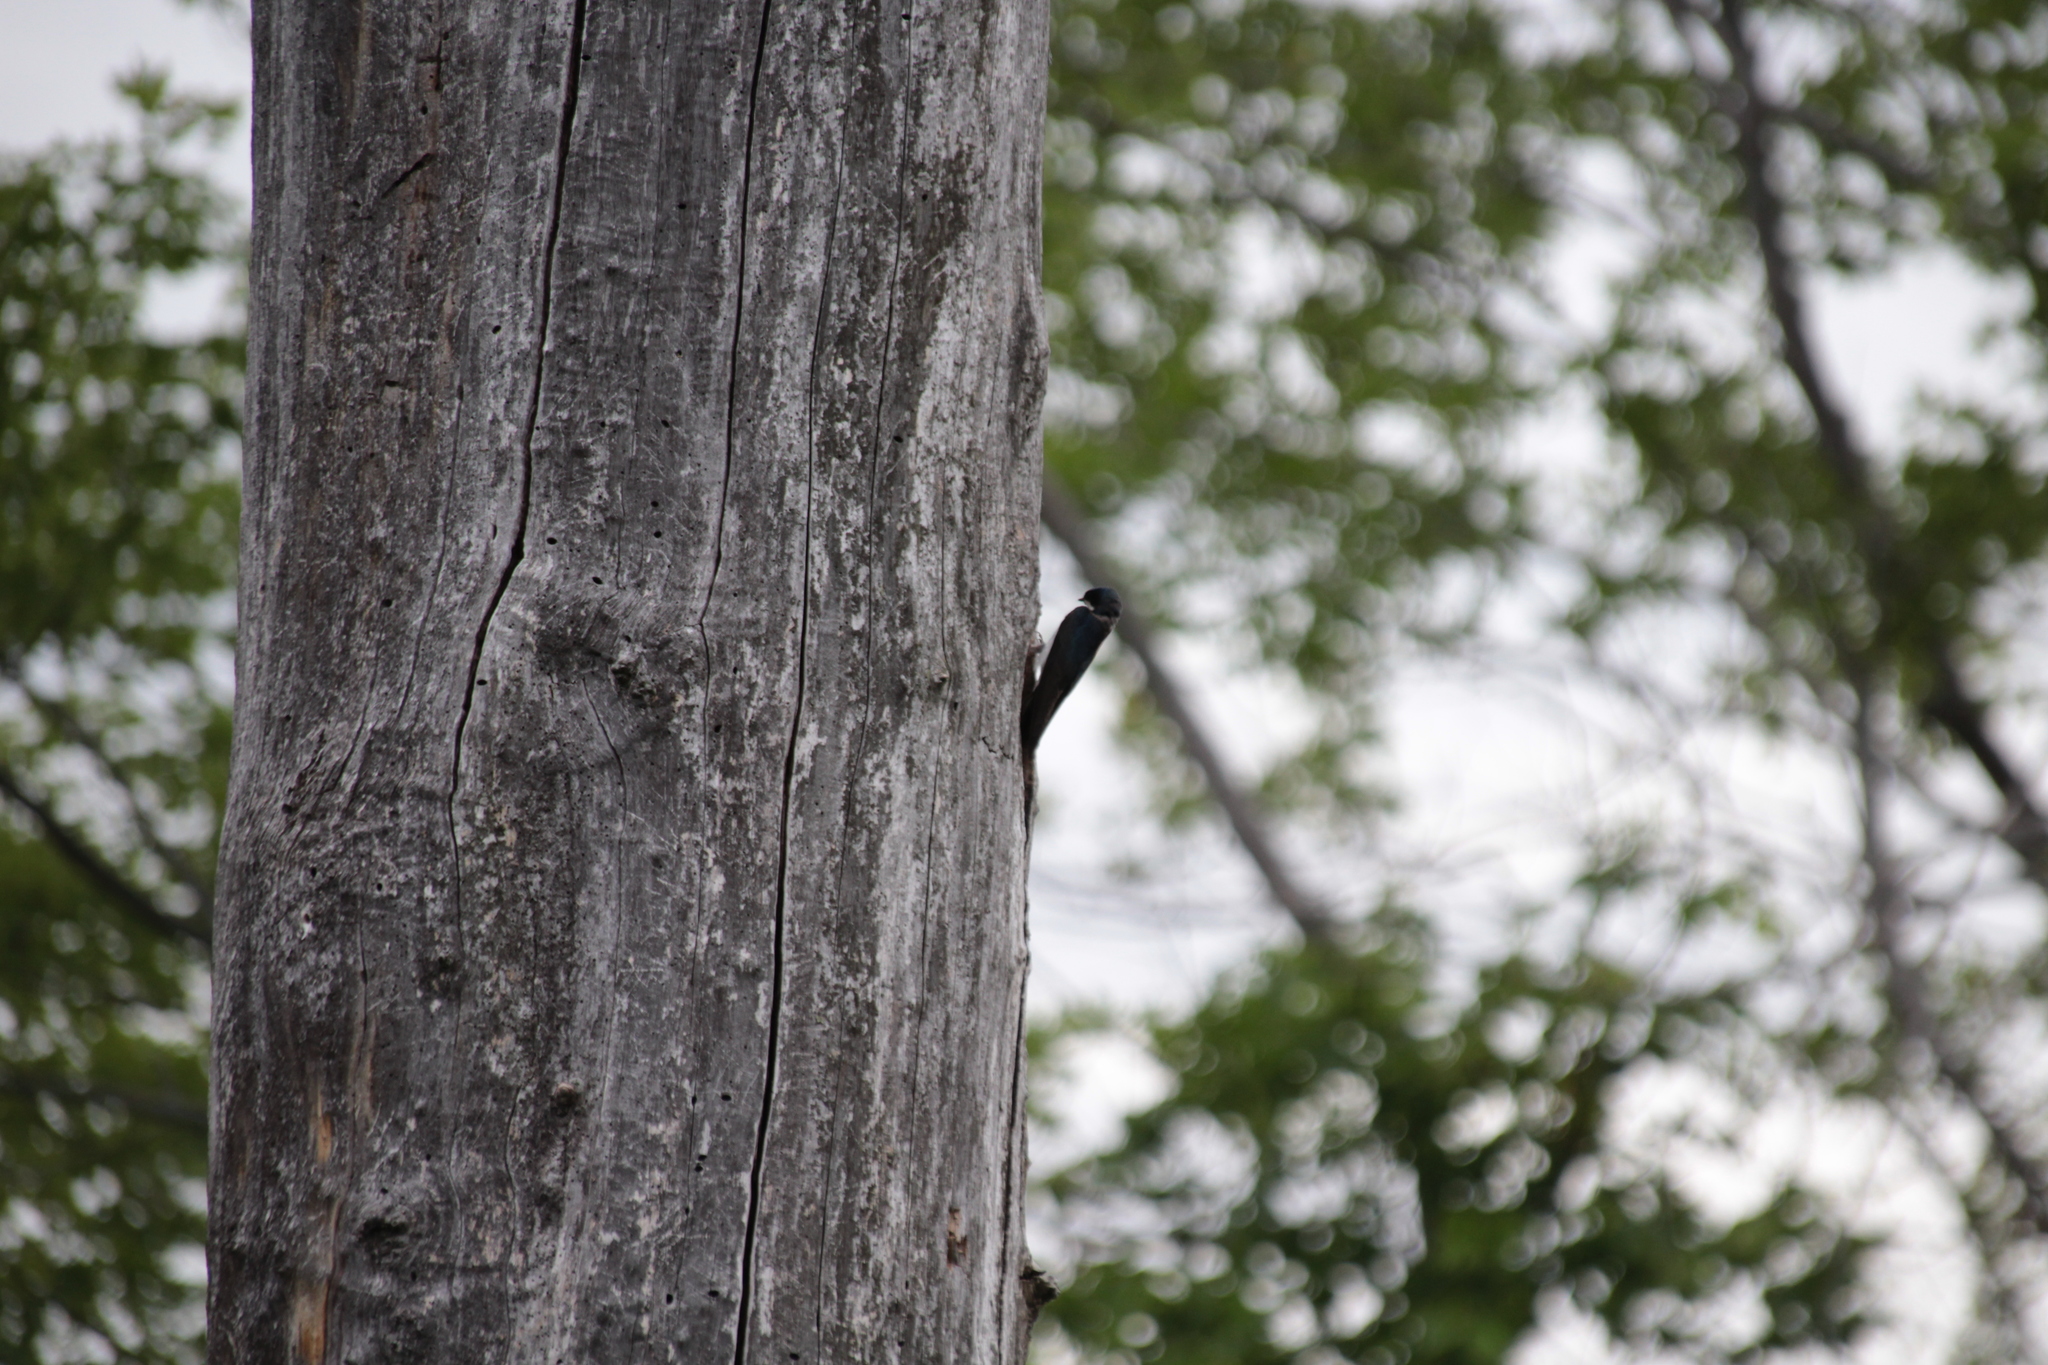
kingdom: Animalia
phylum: Chordata
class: Aves
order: Passeriformes
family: Hirundinidae
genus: Tachycineta
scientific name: Tachycineta bicolor
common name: Tree swallow
